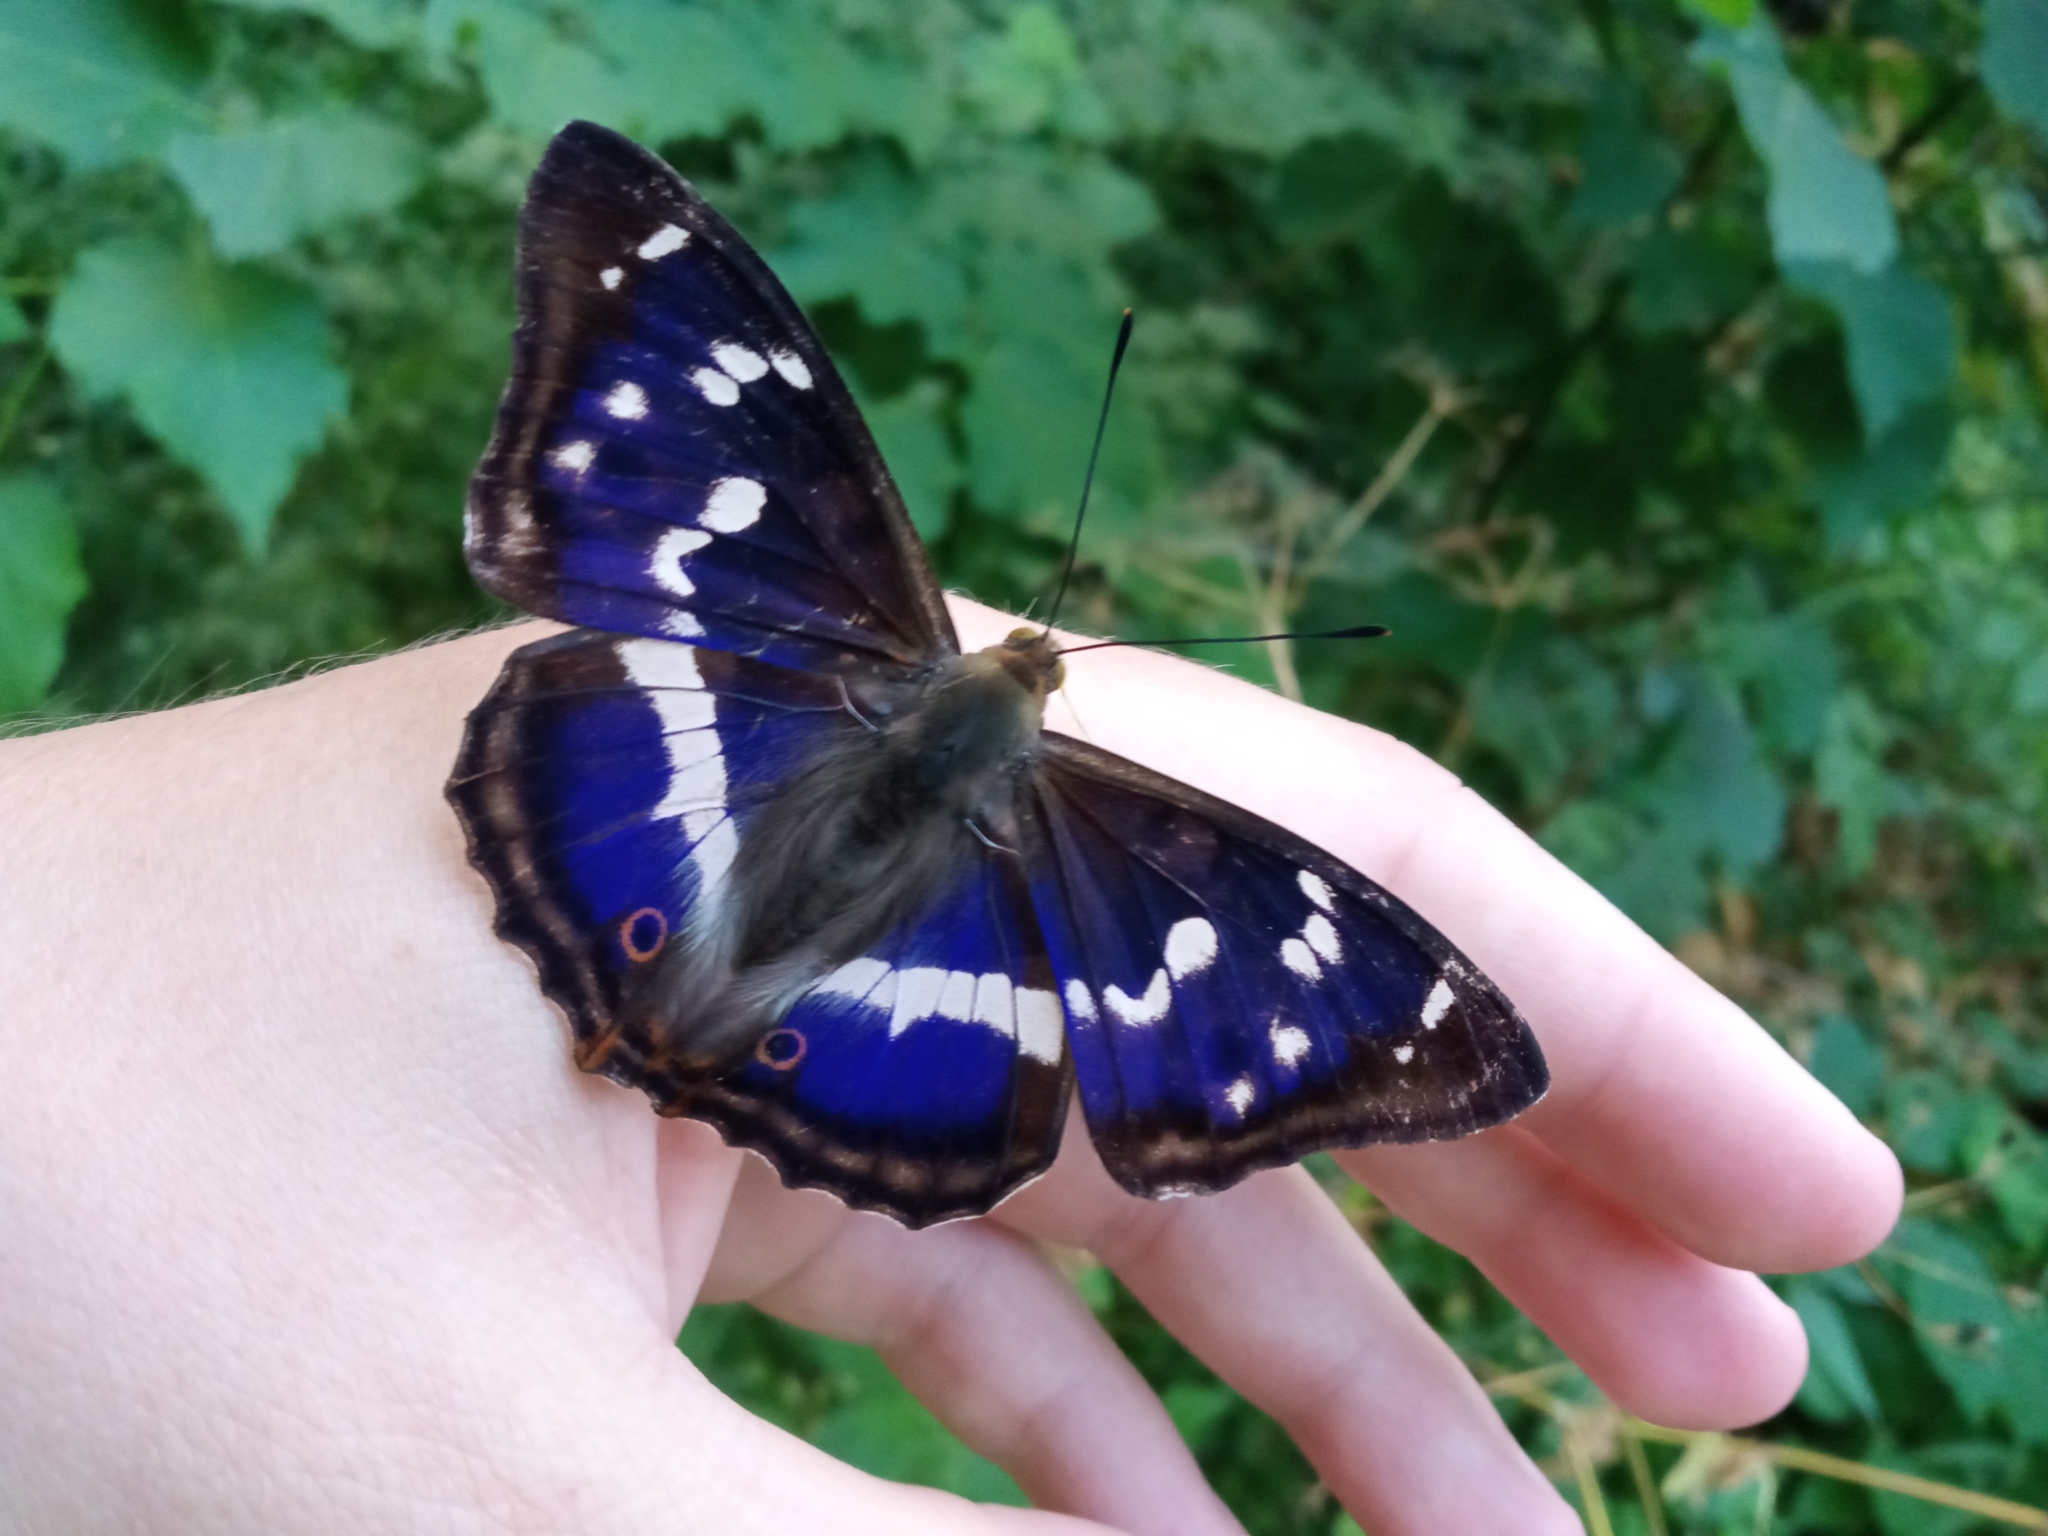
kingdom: Animalia
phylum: Arthropoda
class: Insecta
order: Lepidoptera
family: Nymphalidae
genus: Apatura
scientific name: Apatura iris
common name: Purple emperor
